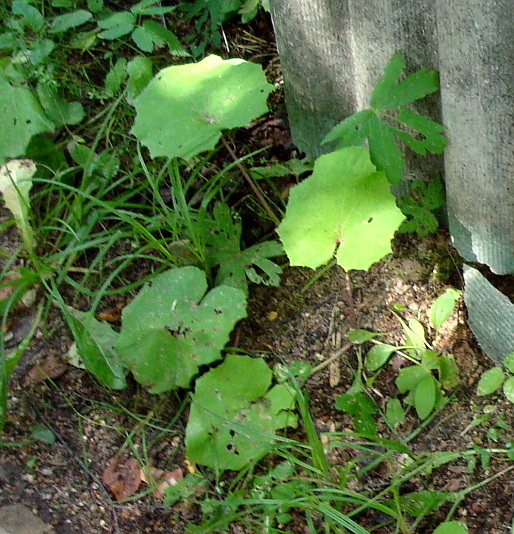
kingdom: Plantae
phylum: Tracheophyta
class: Magnoliopsida
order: Asterales
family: Asteraceae
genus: Tussilago
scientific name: Tussilago farfara
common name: Coltsfoot
